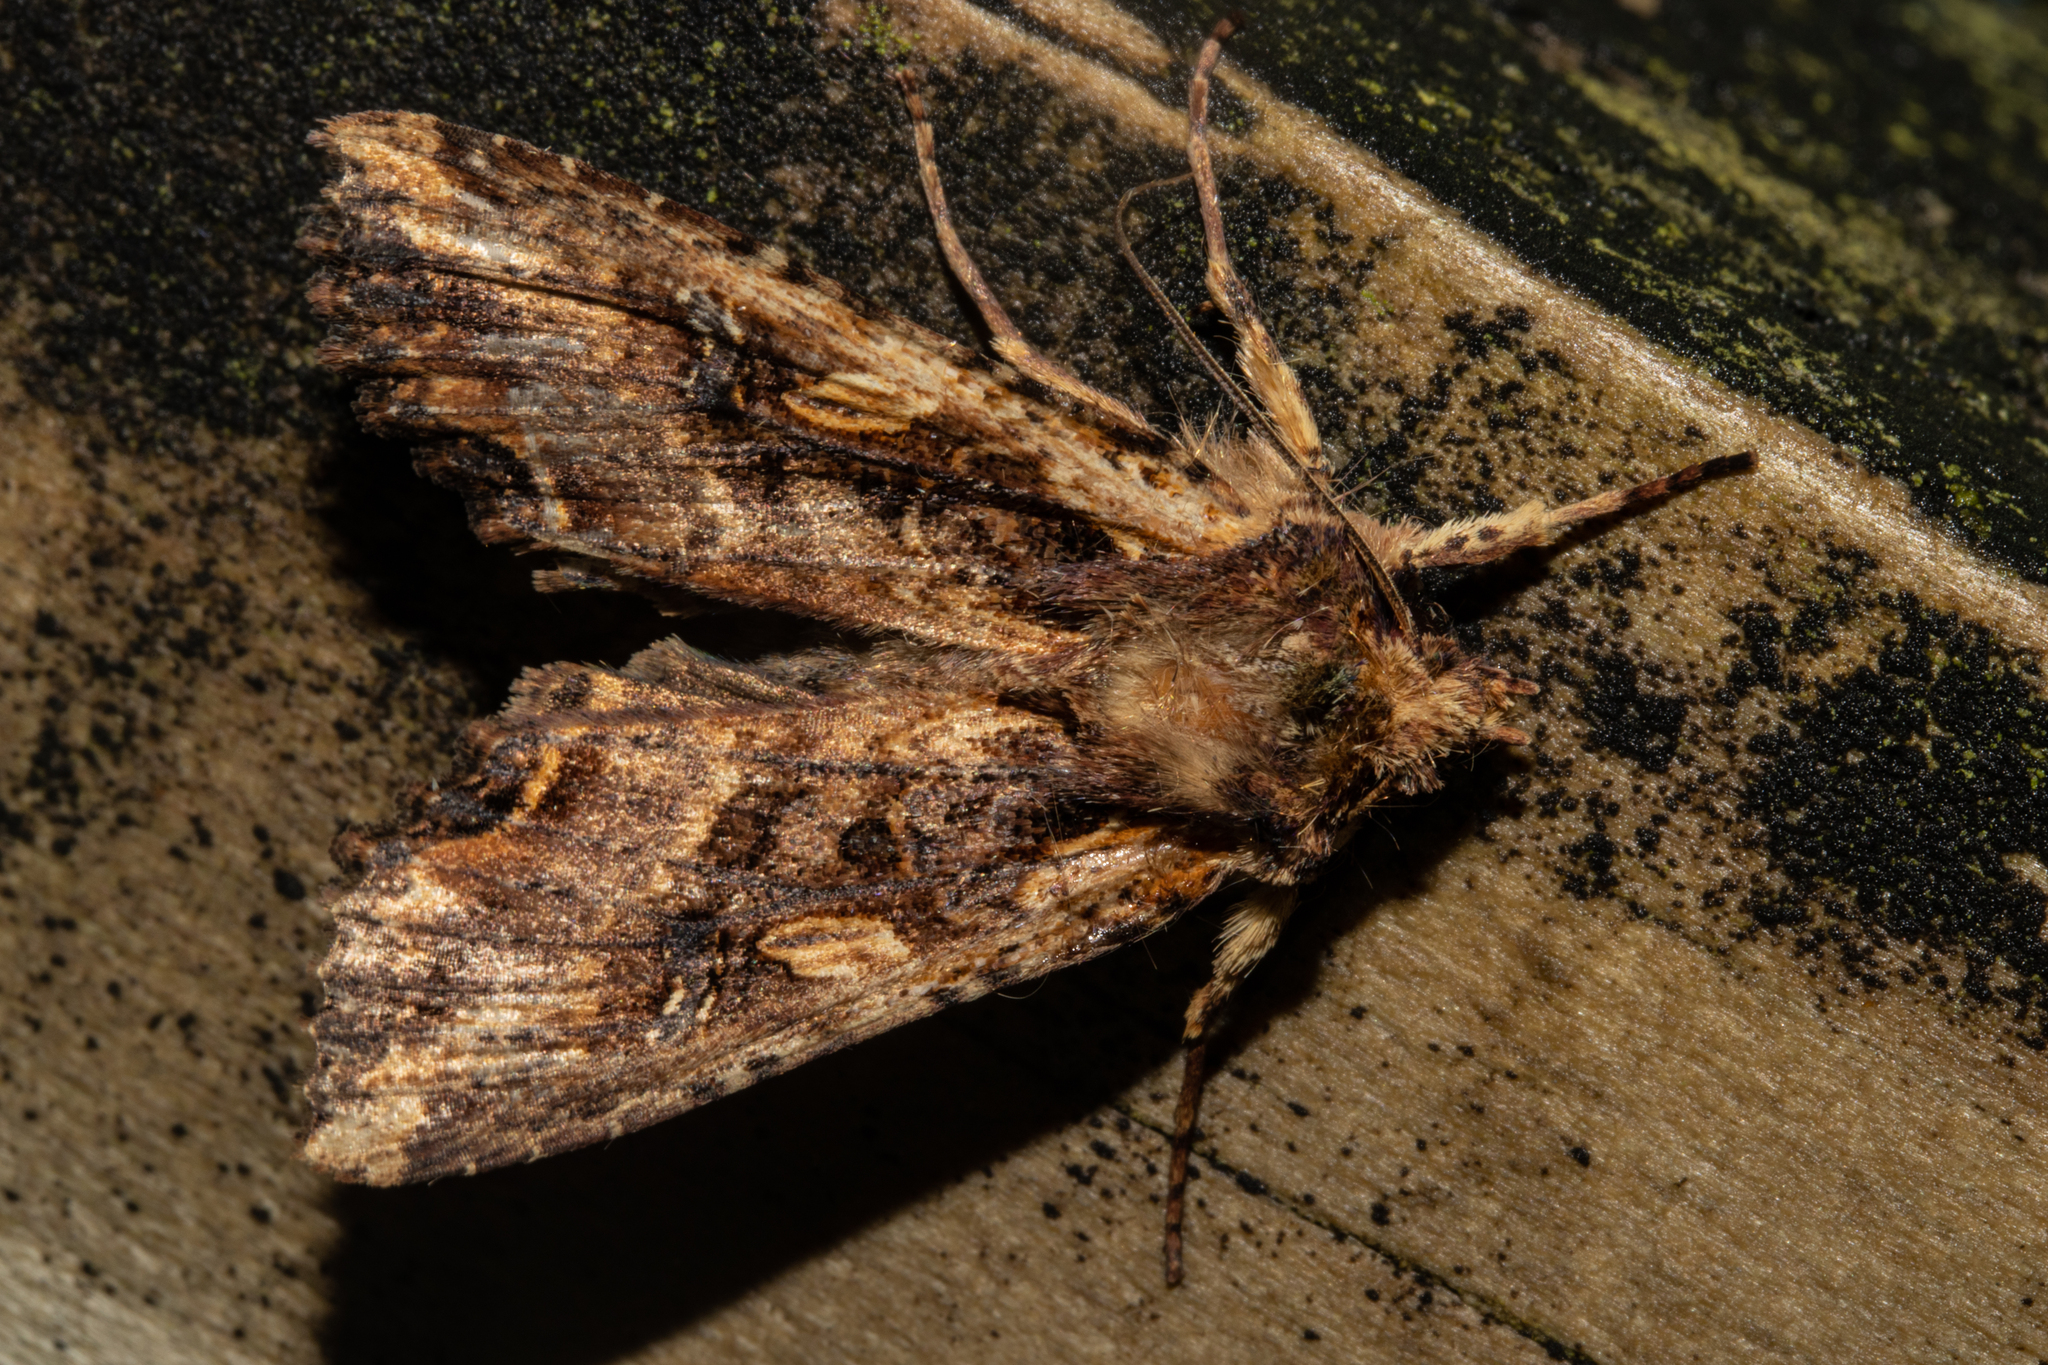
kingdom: Animalia
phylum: Arthropoda
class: Insecta
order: Lepidoptera
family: Noctuidae
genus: Meterana
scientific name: Meterana stipata
